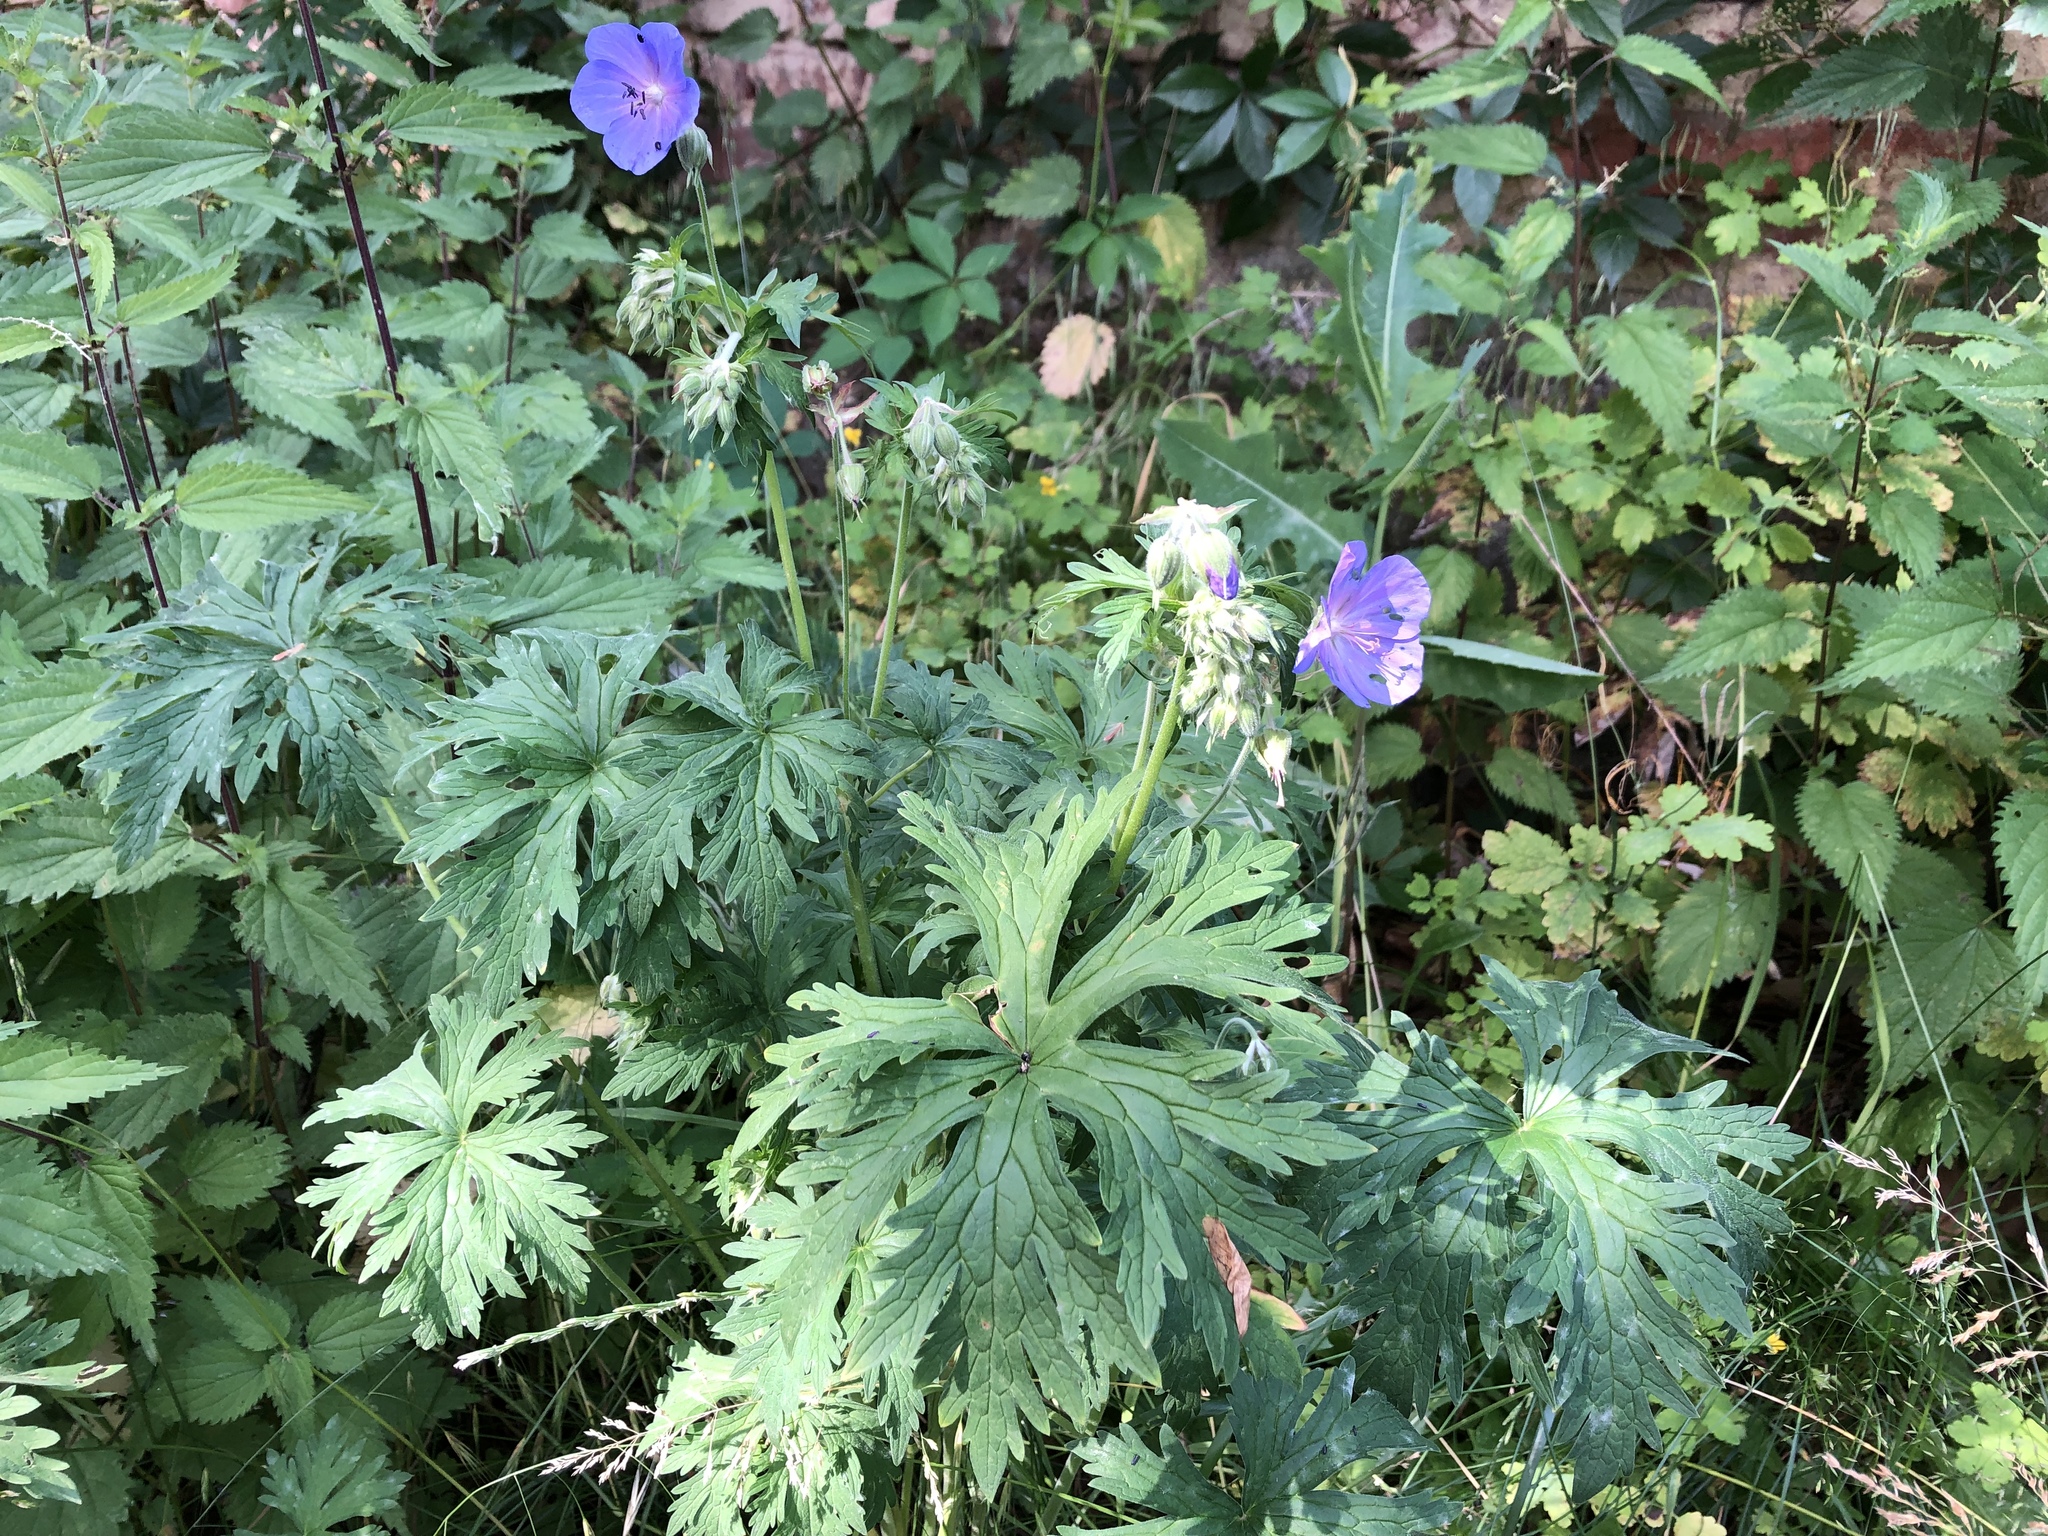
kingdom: Plantae
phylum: Tracheophyta
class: Magnoliopsida
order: Geraniales
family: Geraniaceae
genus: Geranium
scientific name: Geranium pratense
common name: Meadow crane's-bill
